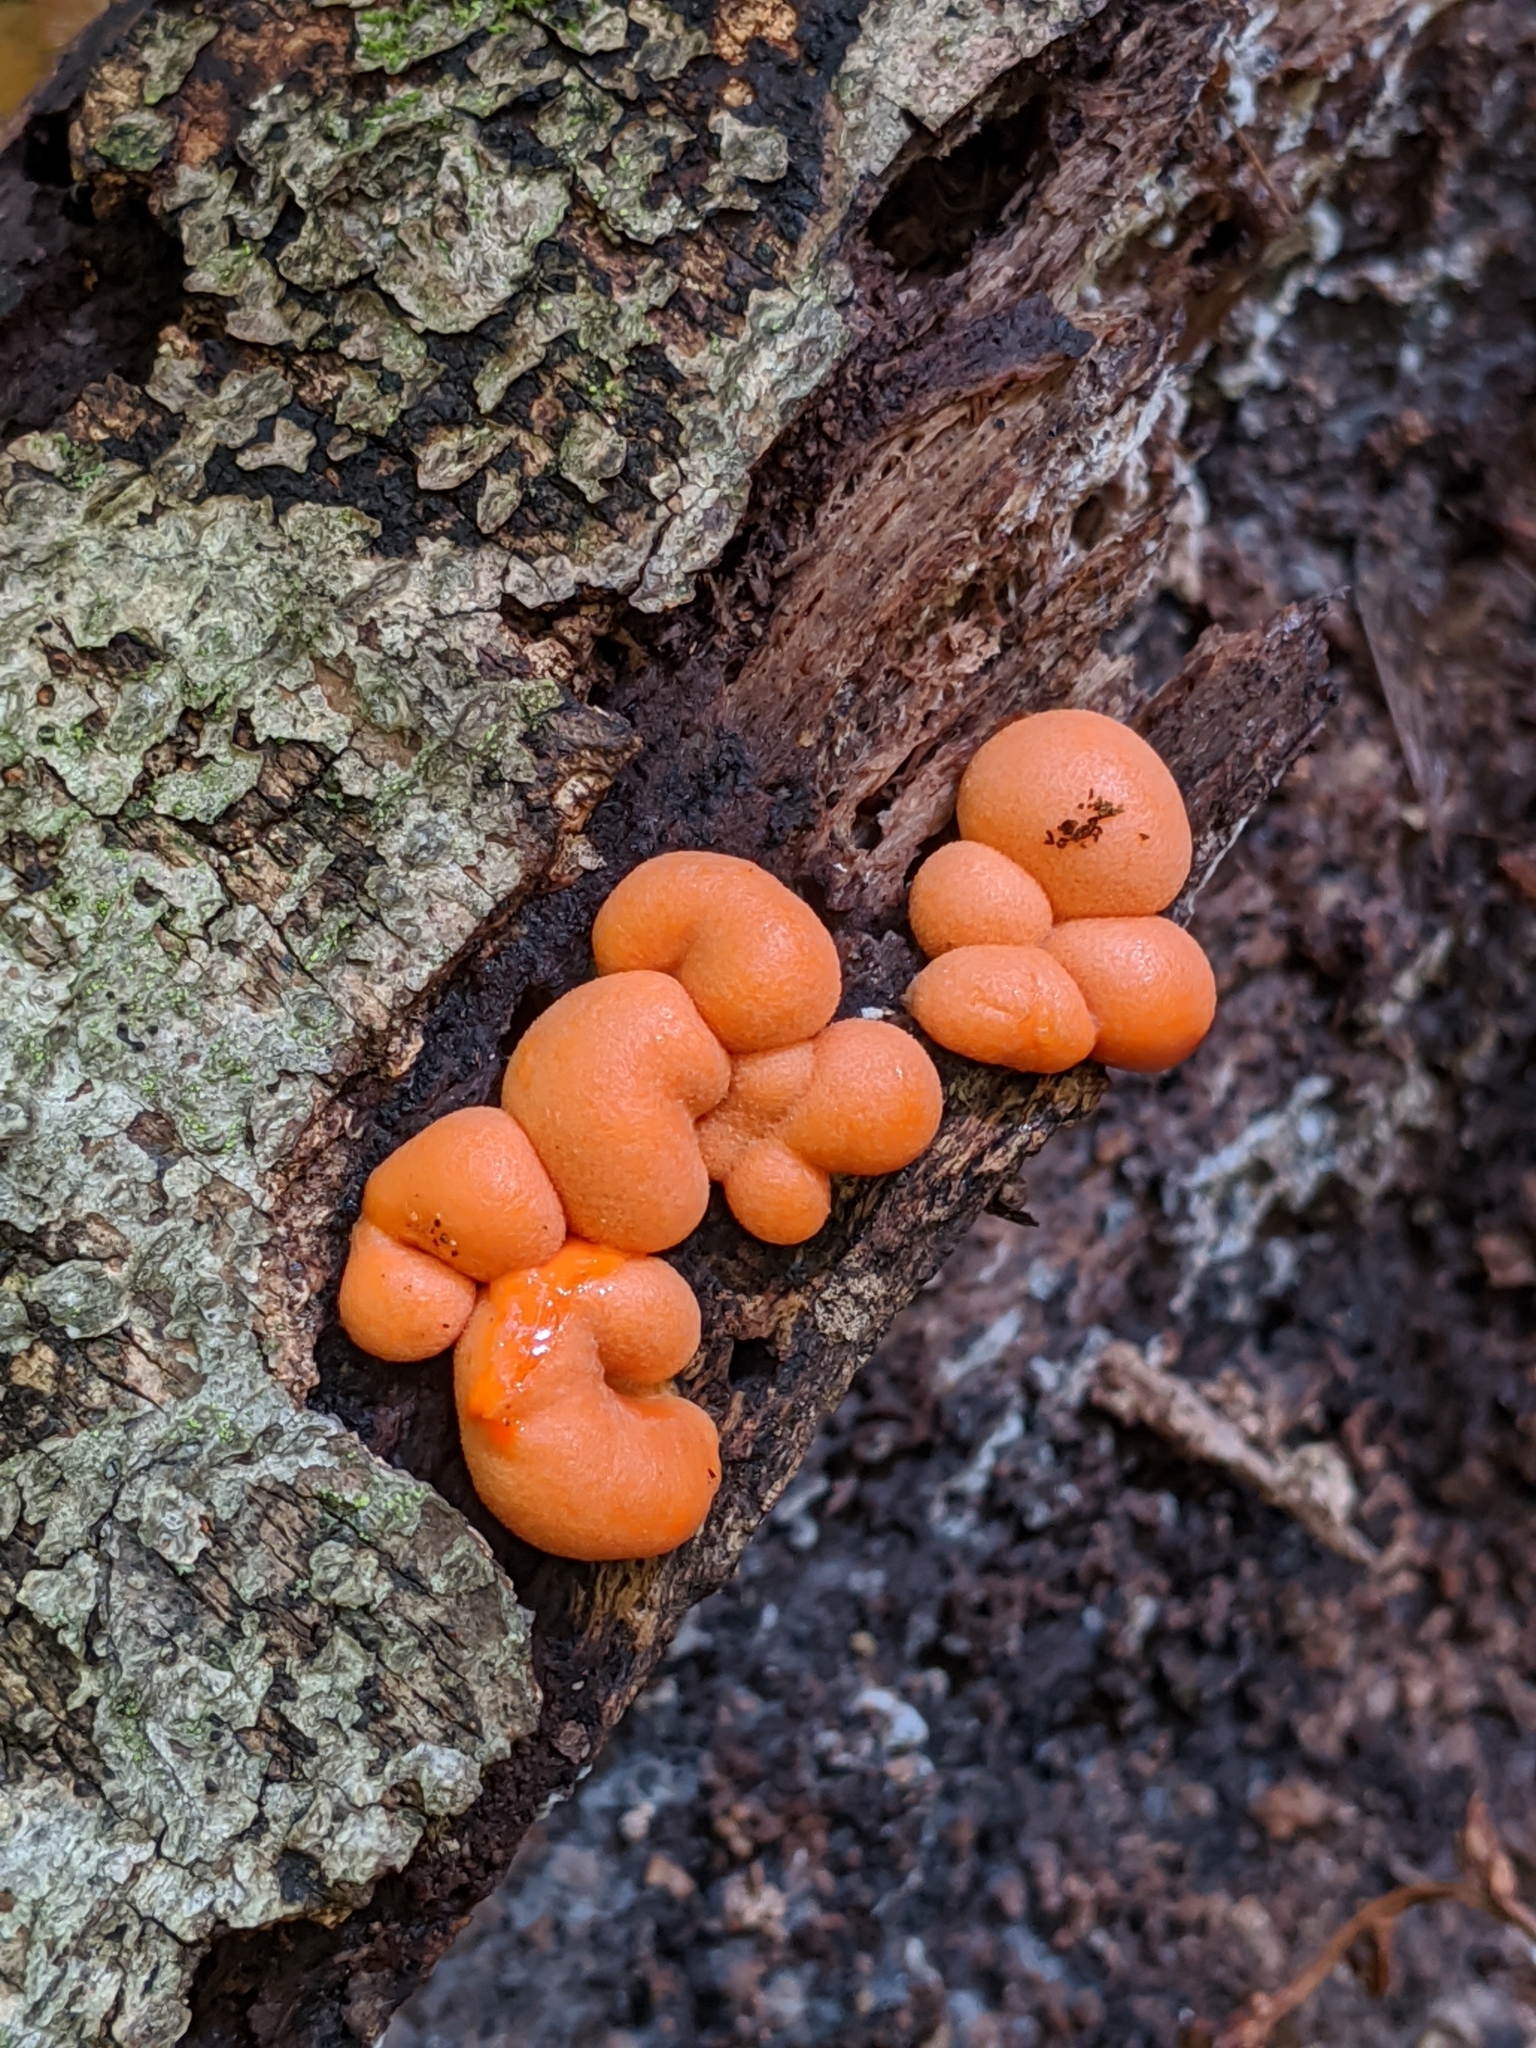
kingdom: Protozoa
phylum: Mycetozoa
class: Myxomycetes
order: Cribrariales
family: Tubiferaceae
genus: Lycogala
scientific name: Lycogala epidendrum
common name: Wolf's milk
